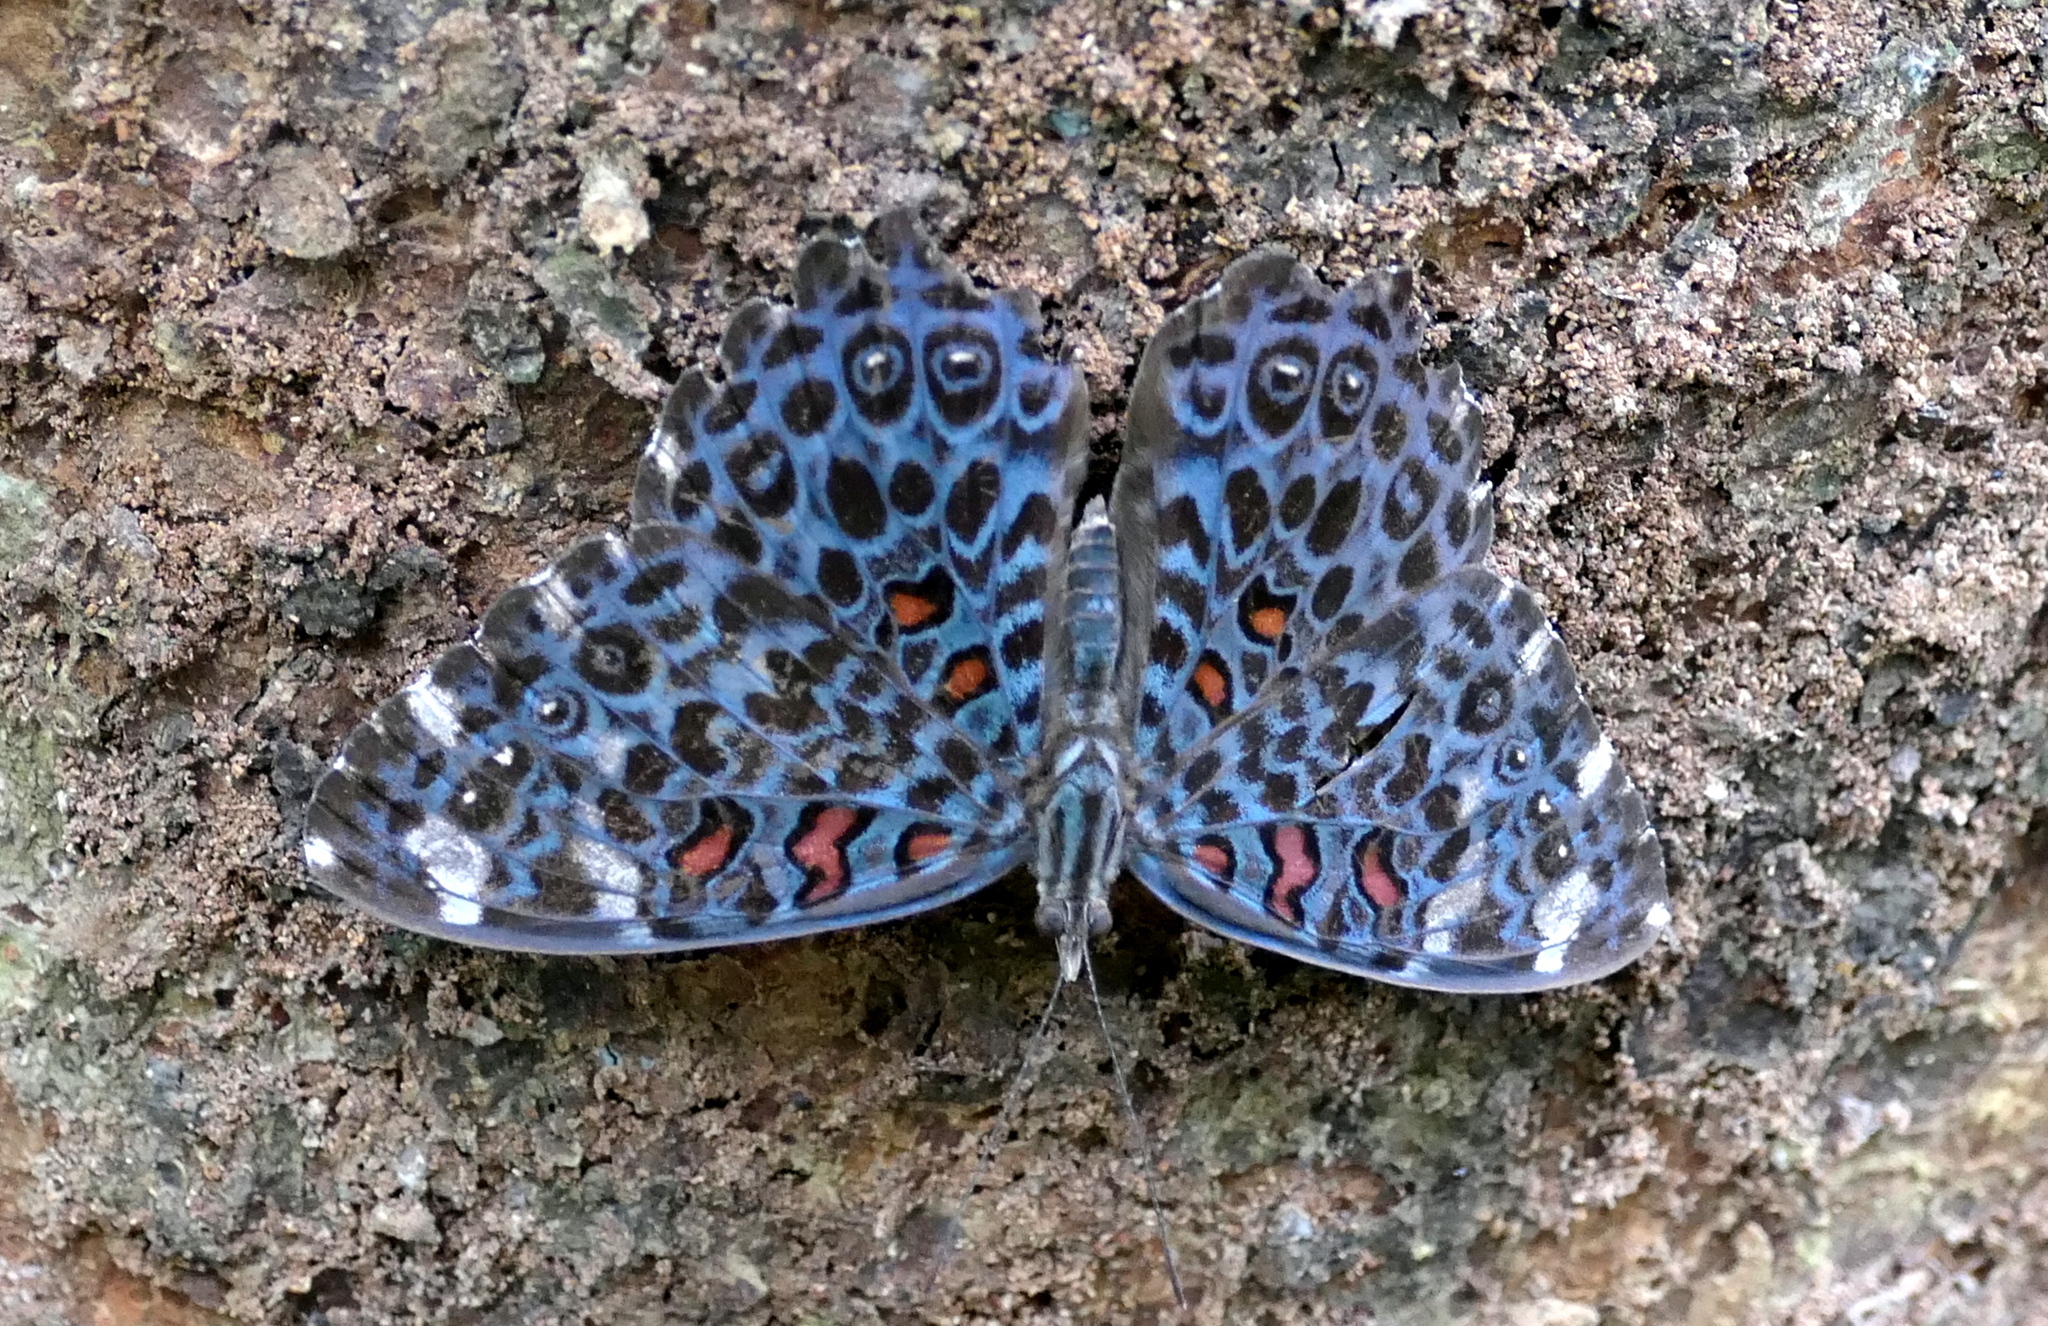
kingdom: Animalia
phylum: Arthropoda
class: Insecta
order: Lepidoptera
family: Nymphalidae
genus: Hamadryas
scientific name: Hamadryas chloe
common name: Amazon cracker
